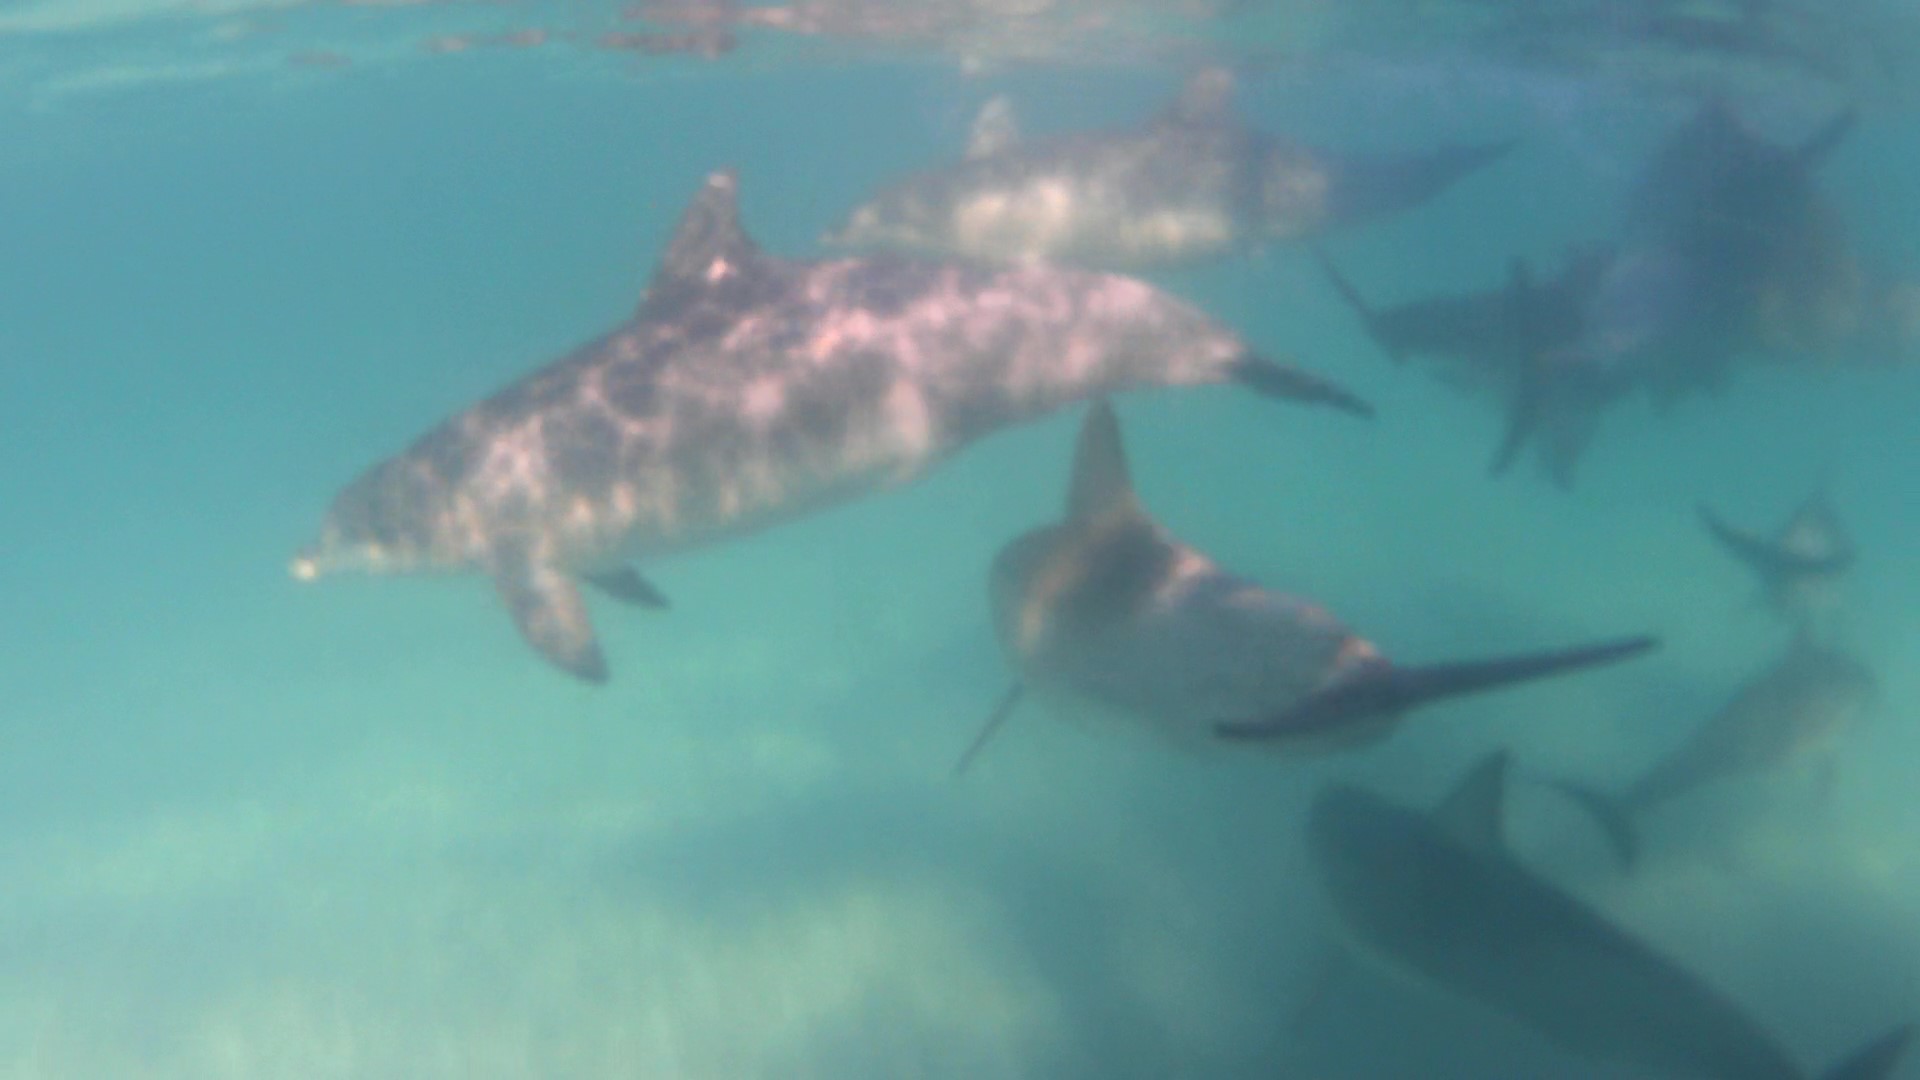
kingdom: Animalia
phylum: Chordata
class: Mammalia
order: Cetacea
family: Delphinidae
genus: Tursiops
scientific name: Tursiops
